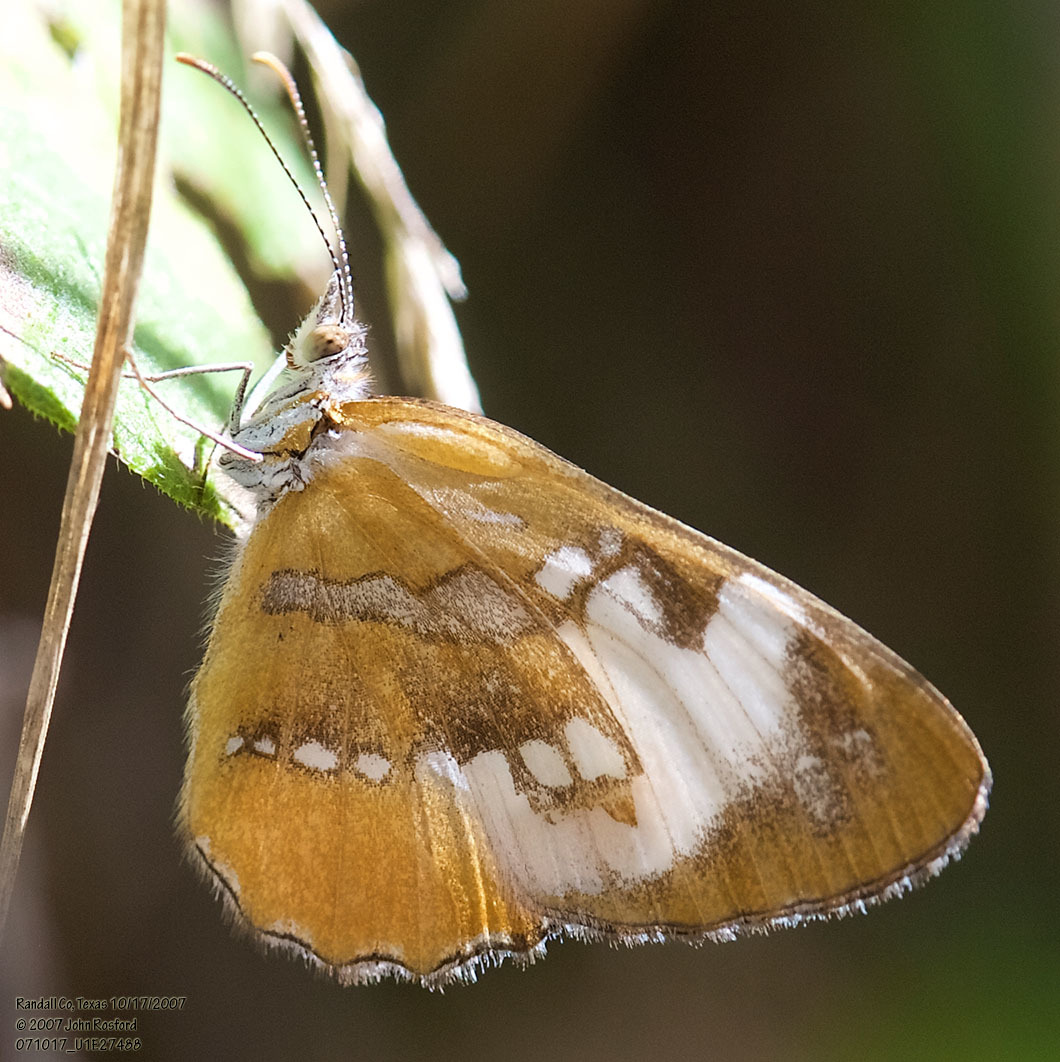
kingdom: Animalia
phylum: Arthropoda
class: Insecta
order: Lepidoptera
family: Nymphalidae
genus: Mestra
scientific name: Mestra amymone
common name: Common mestra
